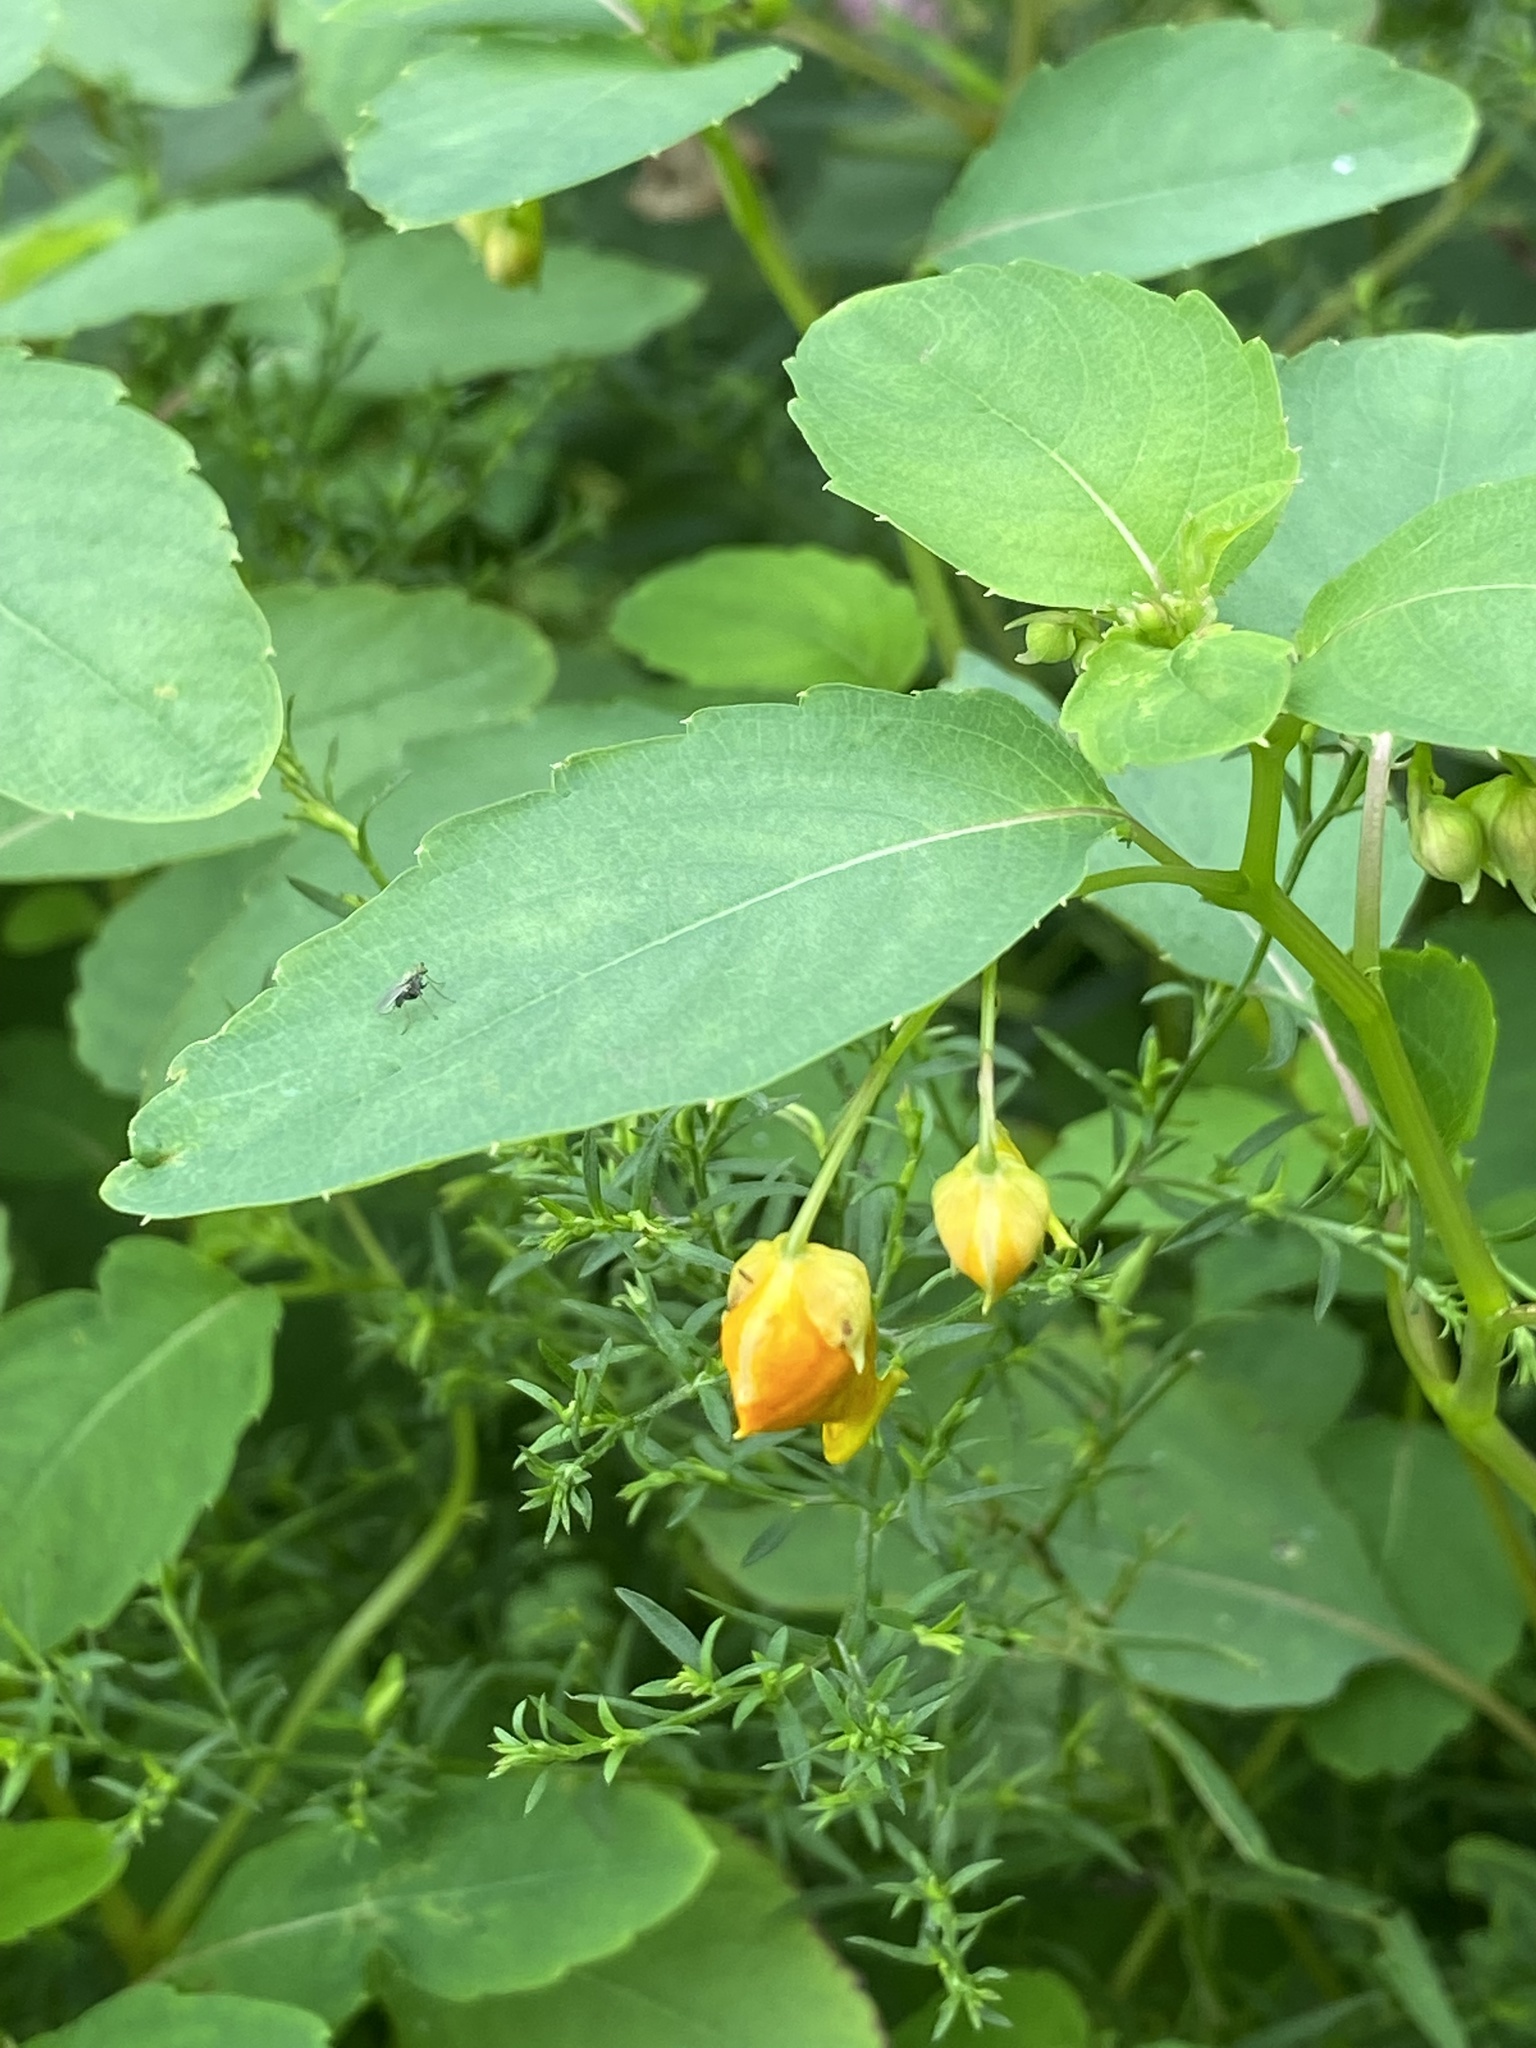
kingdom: Plantae
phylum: Tracheophyta
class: Magnoliopsida
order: Ericales
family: Balsaminaceae
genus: Impatiens
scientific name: Impatiens capensis
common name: Orange balsam
